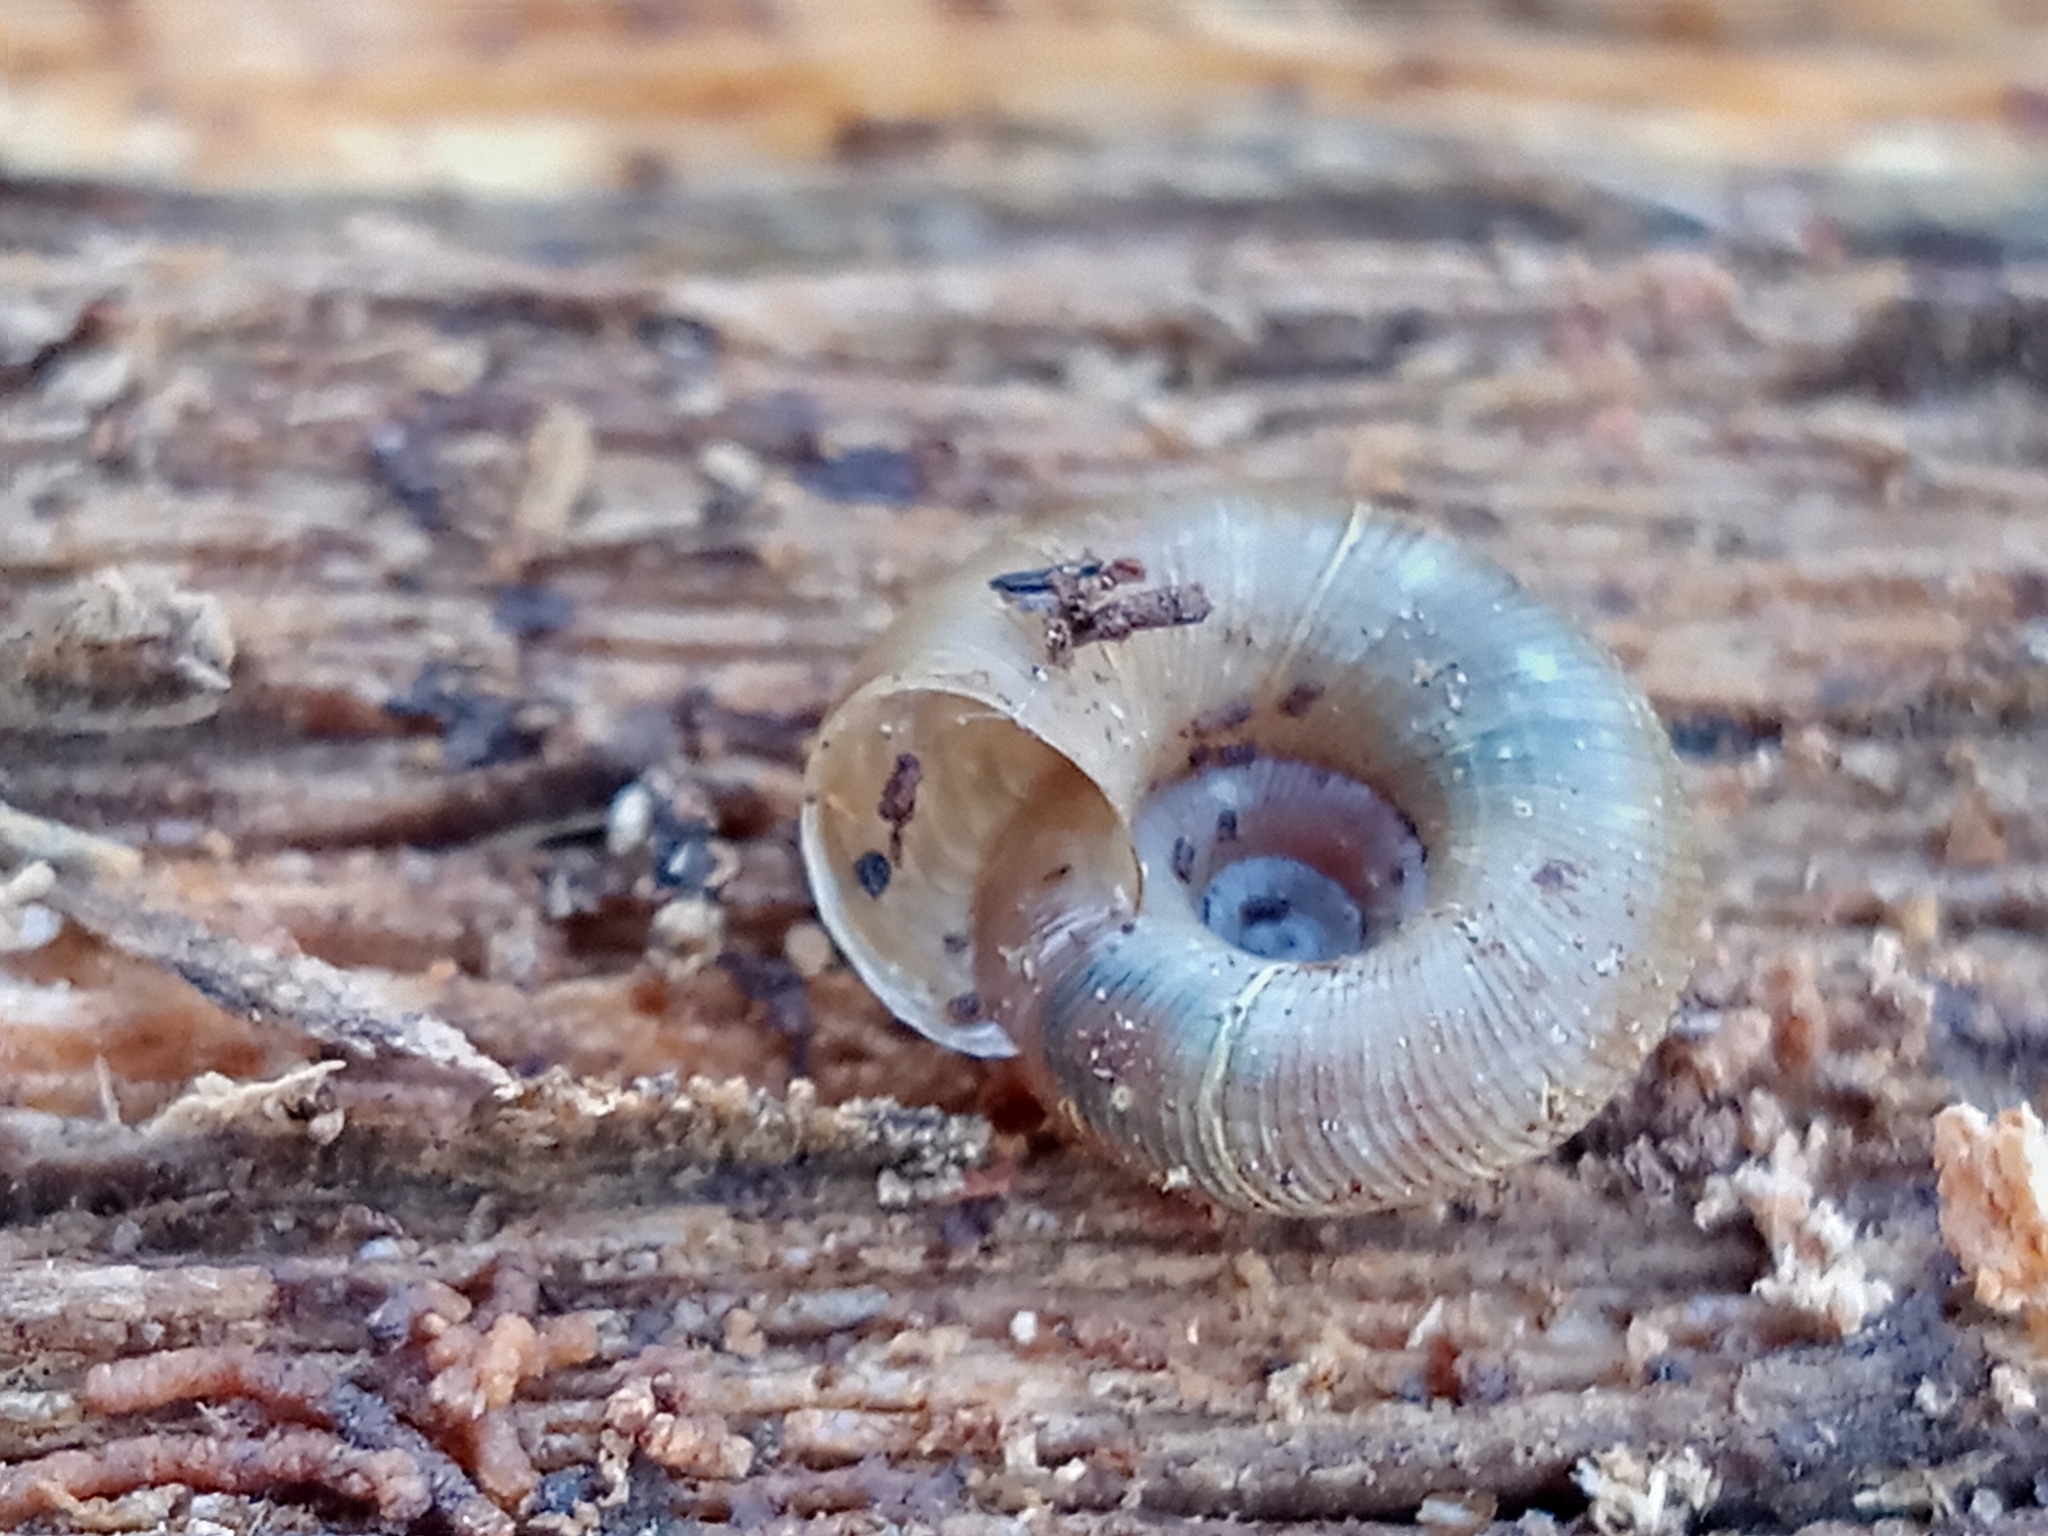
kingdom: Animalia
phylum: Mollusca
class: Gastropoda
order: Stylommatophora
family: Discidae
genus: Discus
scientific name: Discus ruderatus
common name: Brown disc snail
